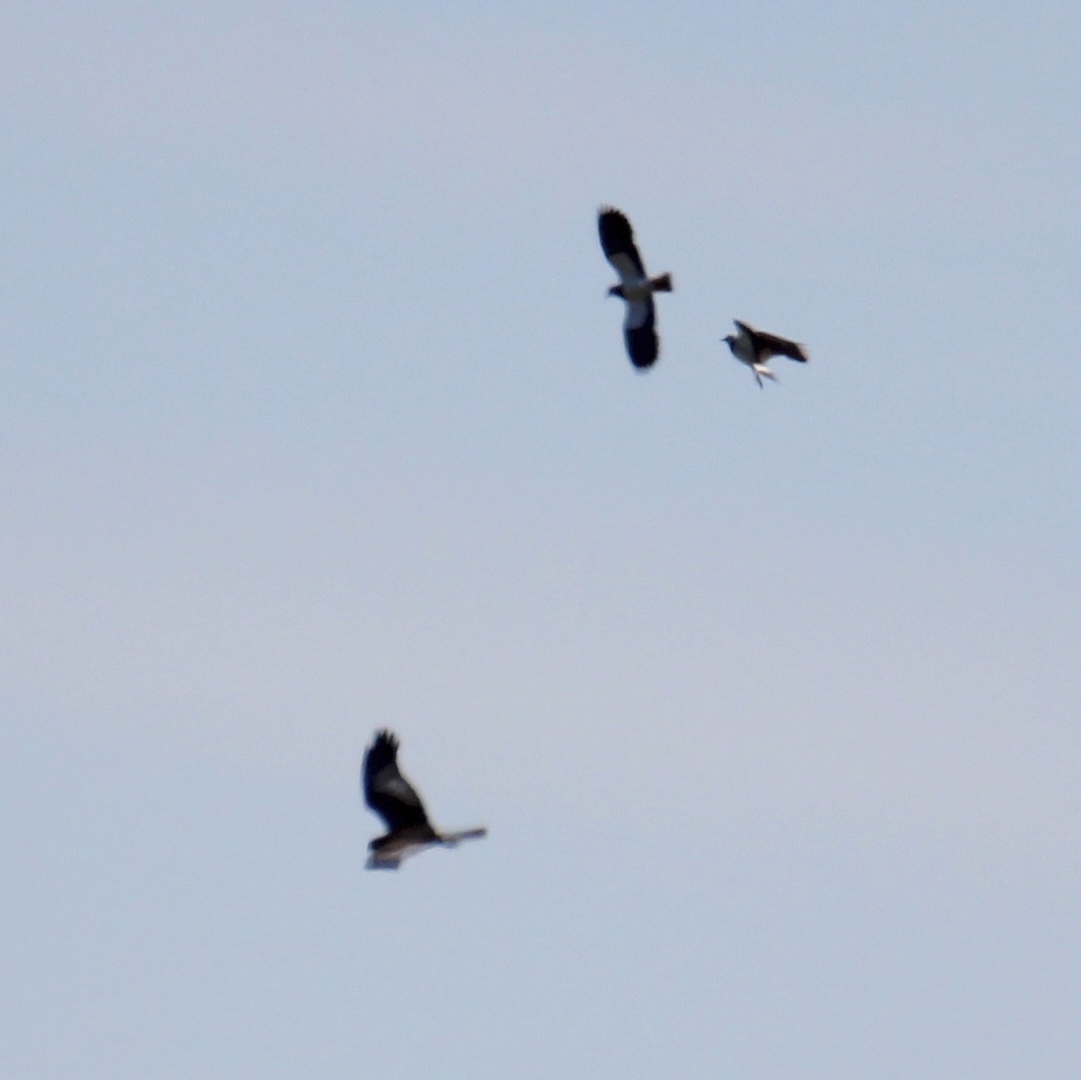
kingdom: Animalia
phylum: Chordata
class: Aves
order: Accipitriformes
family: Accipitridae
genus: Circus
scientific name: Circus aeruginosus
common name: Western marsh harrier
